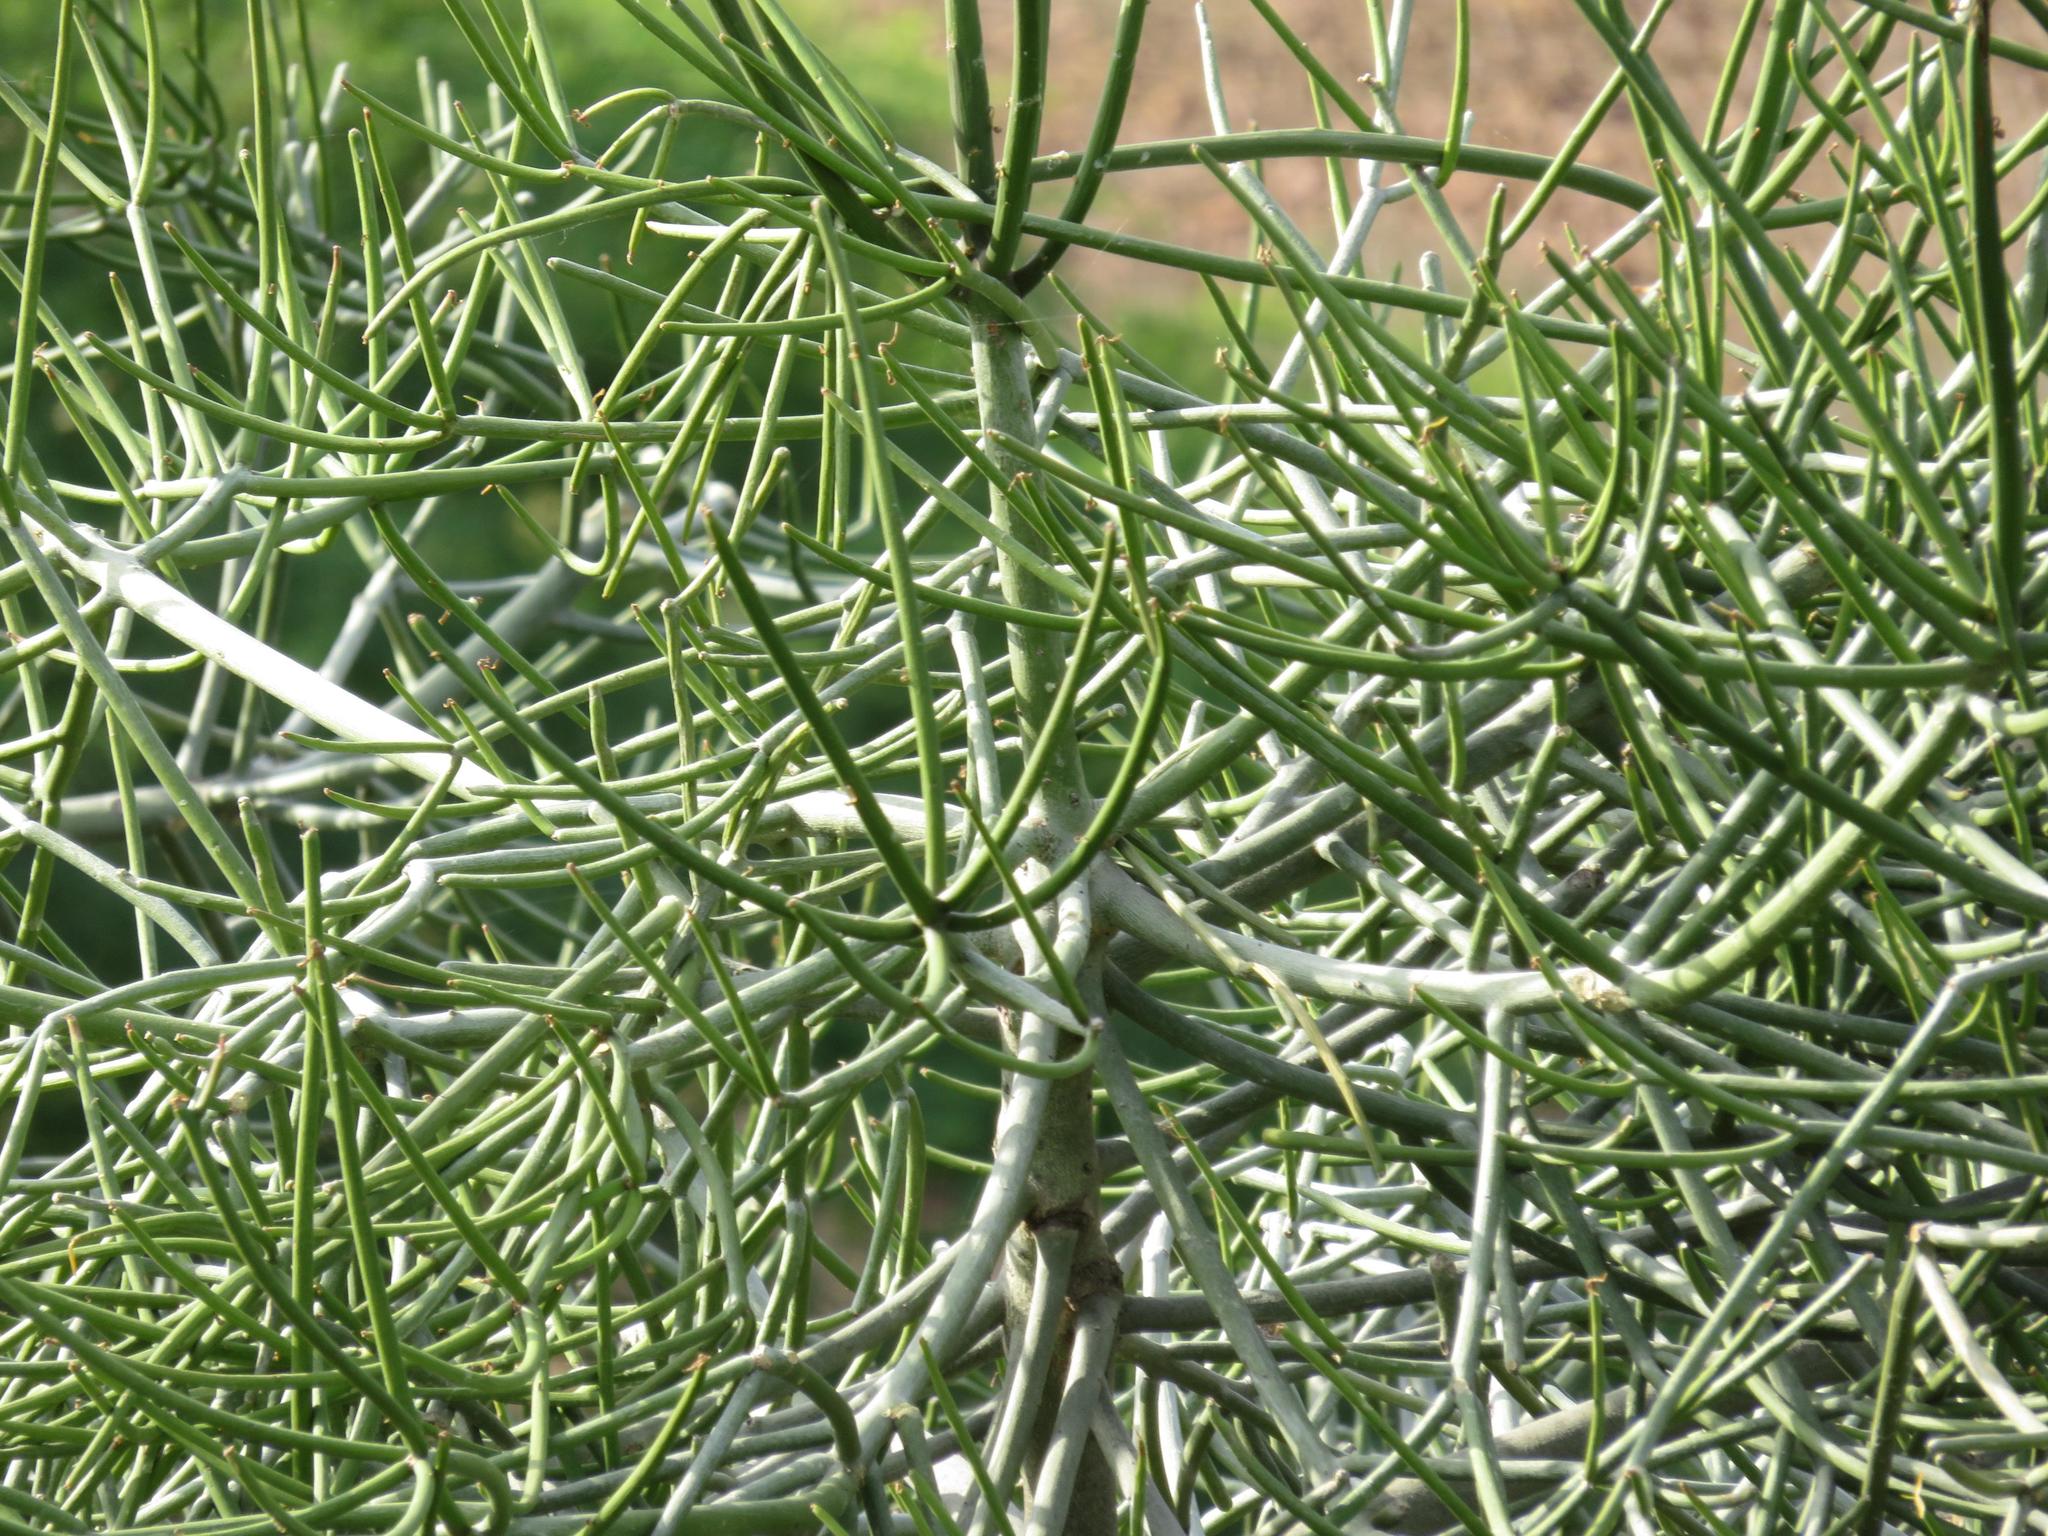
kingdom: Plantae
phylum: Tracheophyta
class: Magnoliopsida
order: Malpighiales
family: Euphorbiaceae
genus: Euphorbia
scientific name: Euphorbia tirucalli
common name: Indiantree spurge
